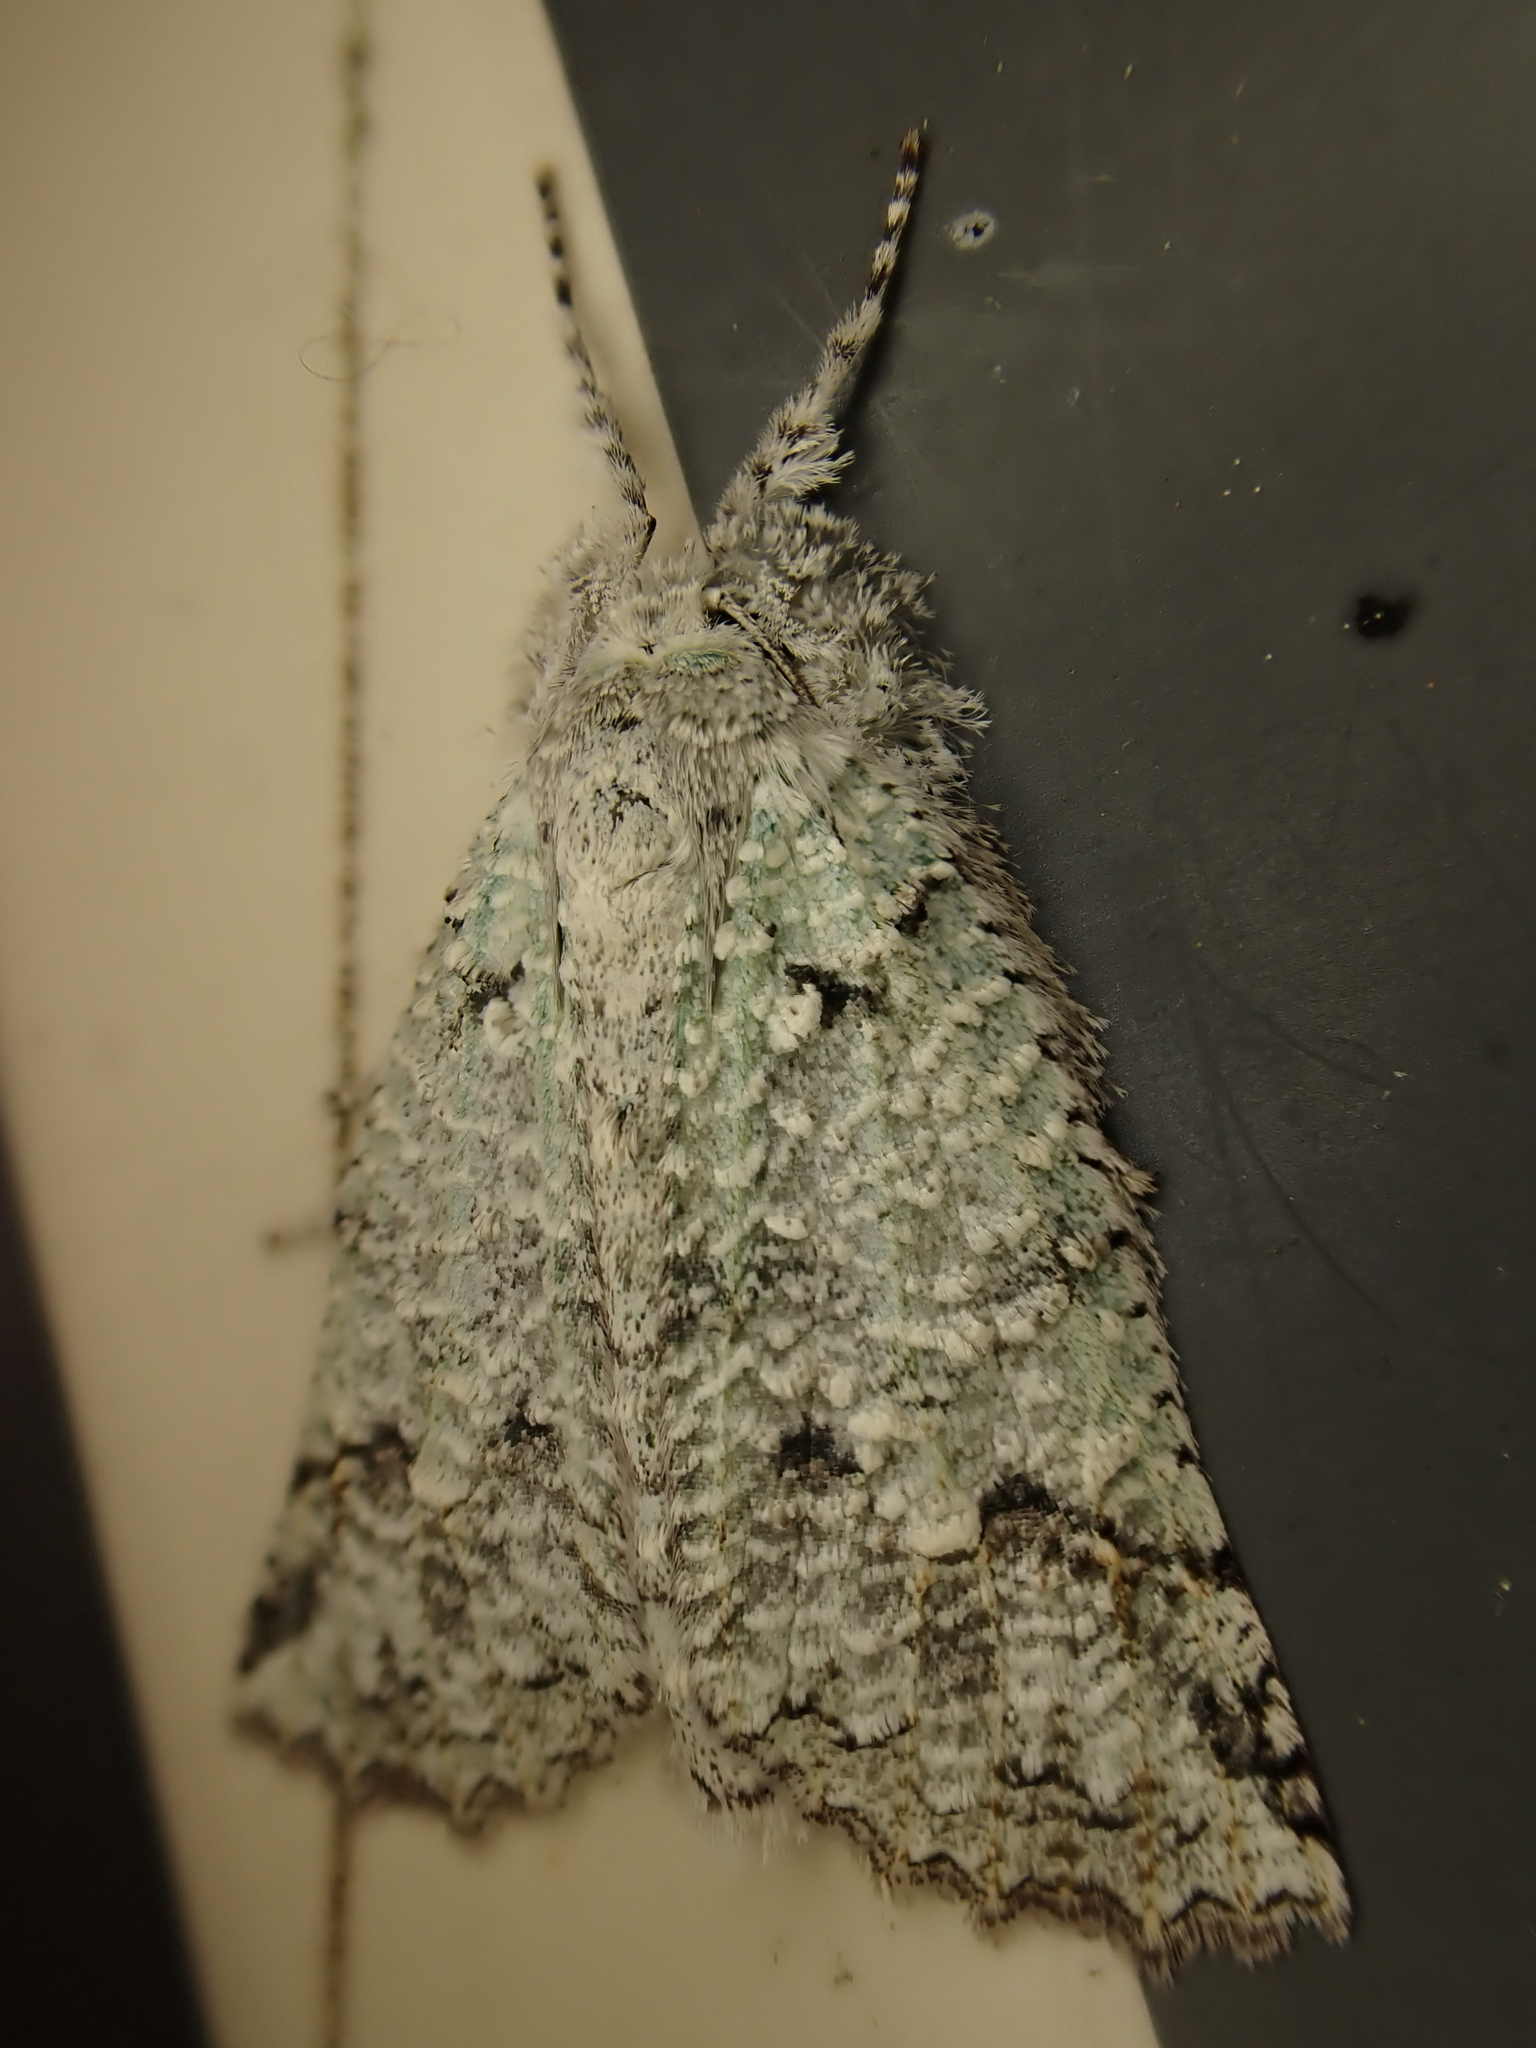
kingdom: Animalia
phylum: Arthropoda
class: Insecta
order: Lepidoptera
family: Geometridae
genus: Declana
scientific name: Declana floccosa
